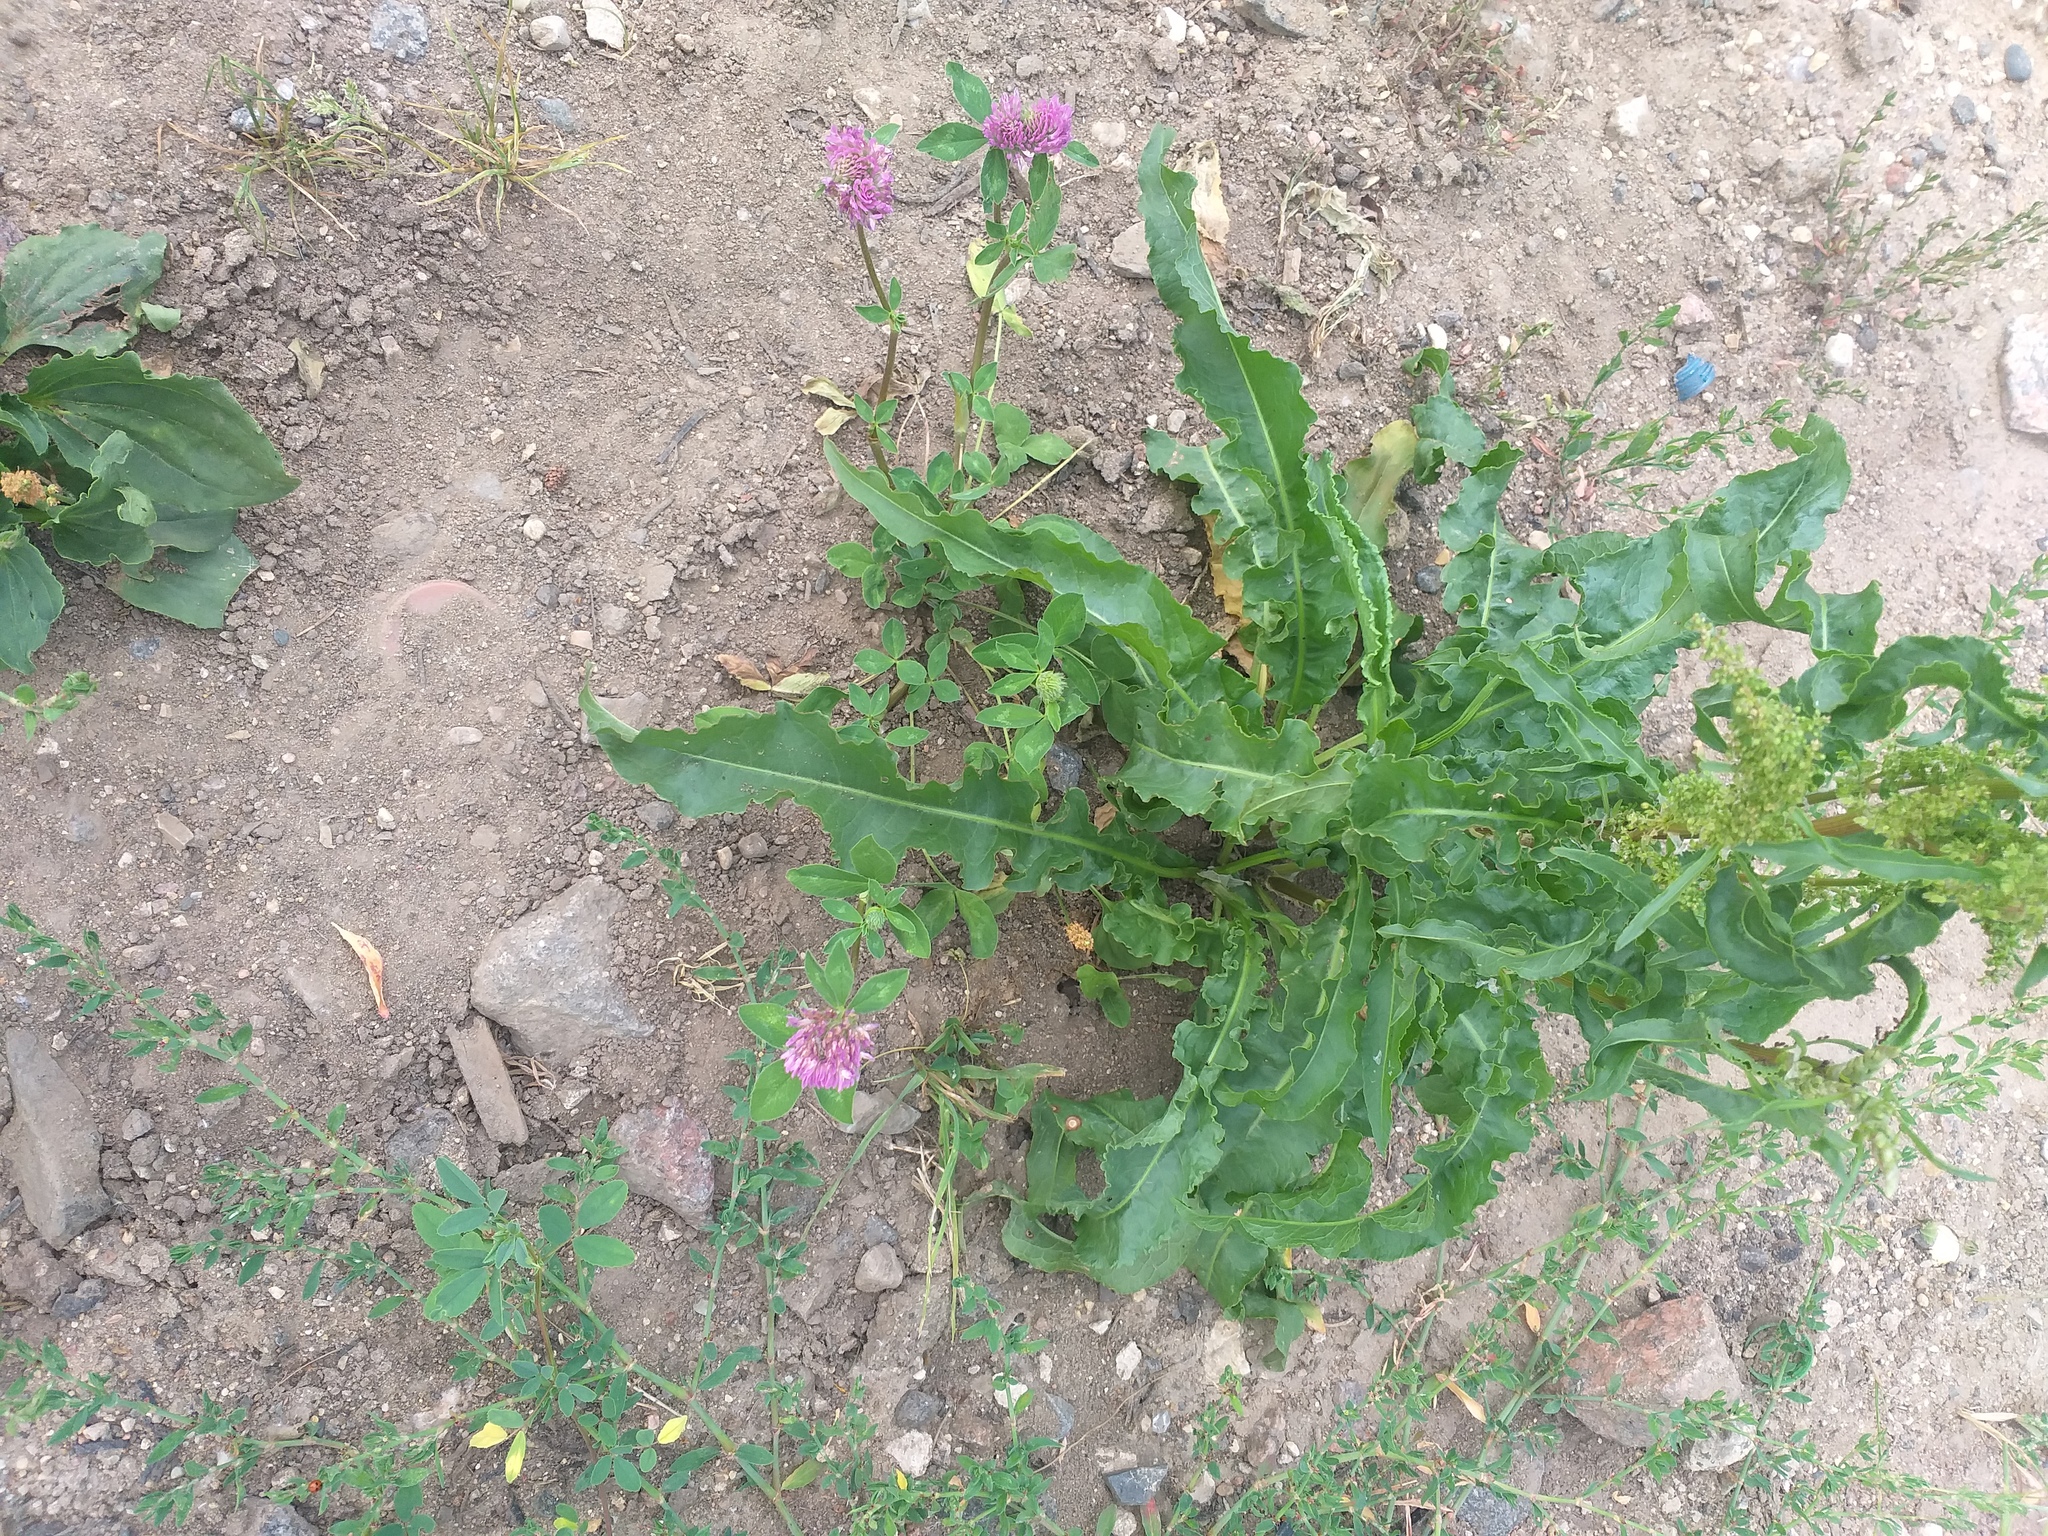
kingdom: Plantae
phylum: Tracheophyta
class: Magnoliopsida
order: Fabales
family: Fabaceae
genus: Trifolium
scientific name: Trifolium pratense
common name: Red clover
